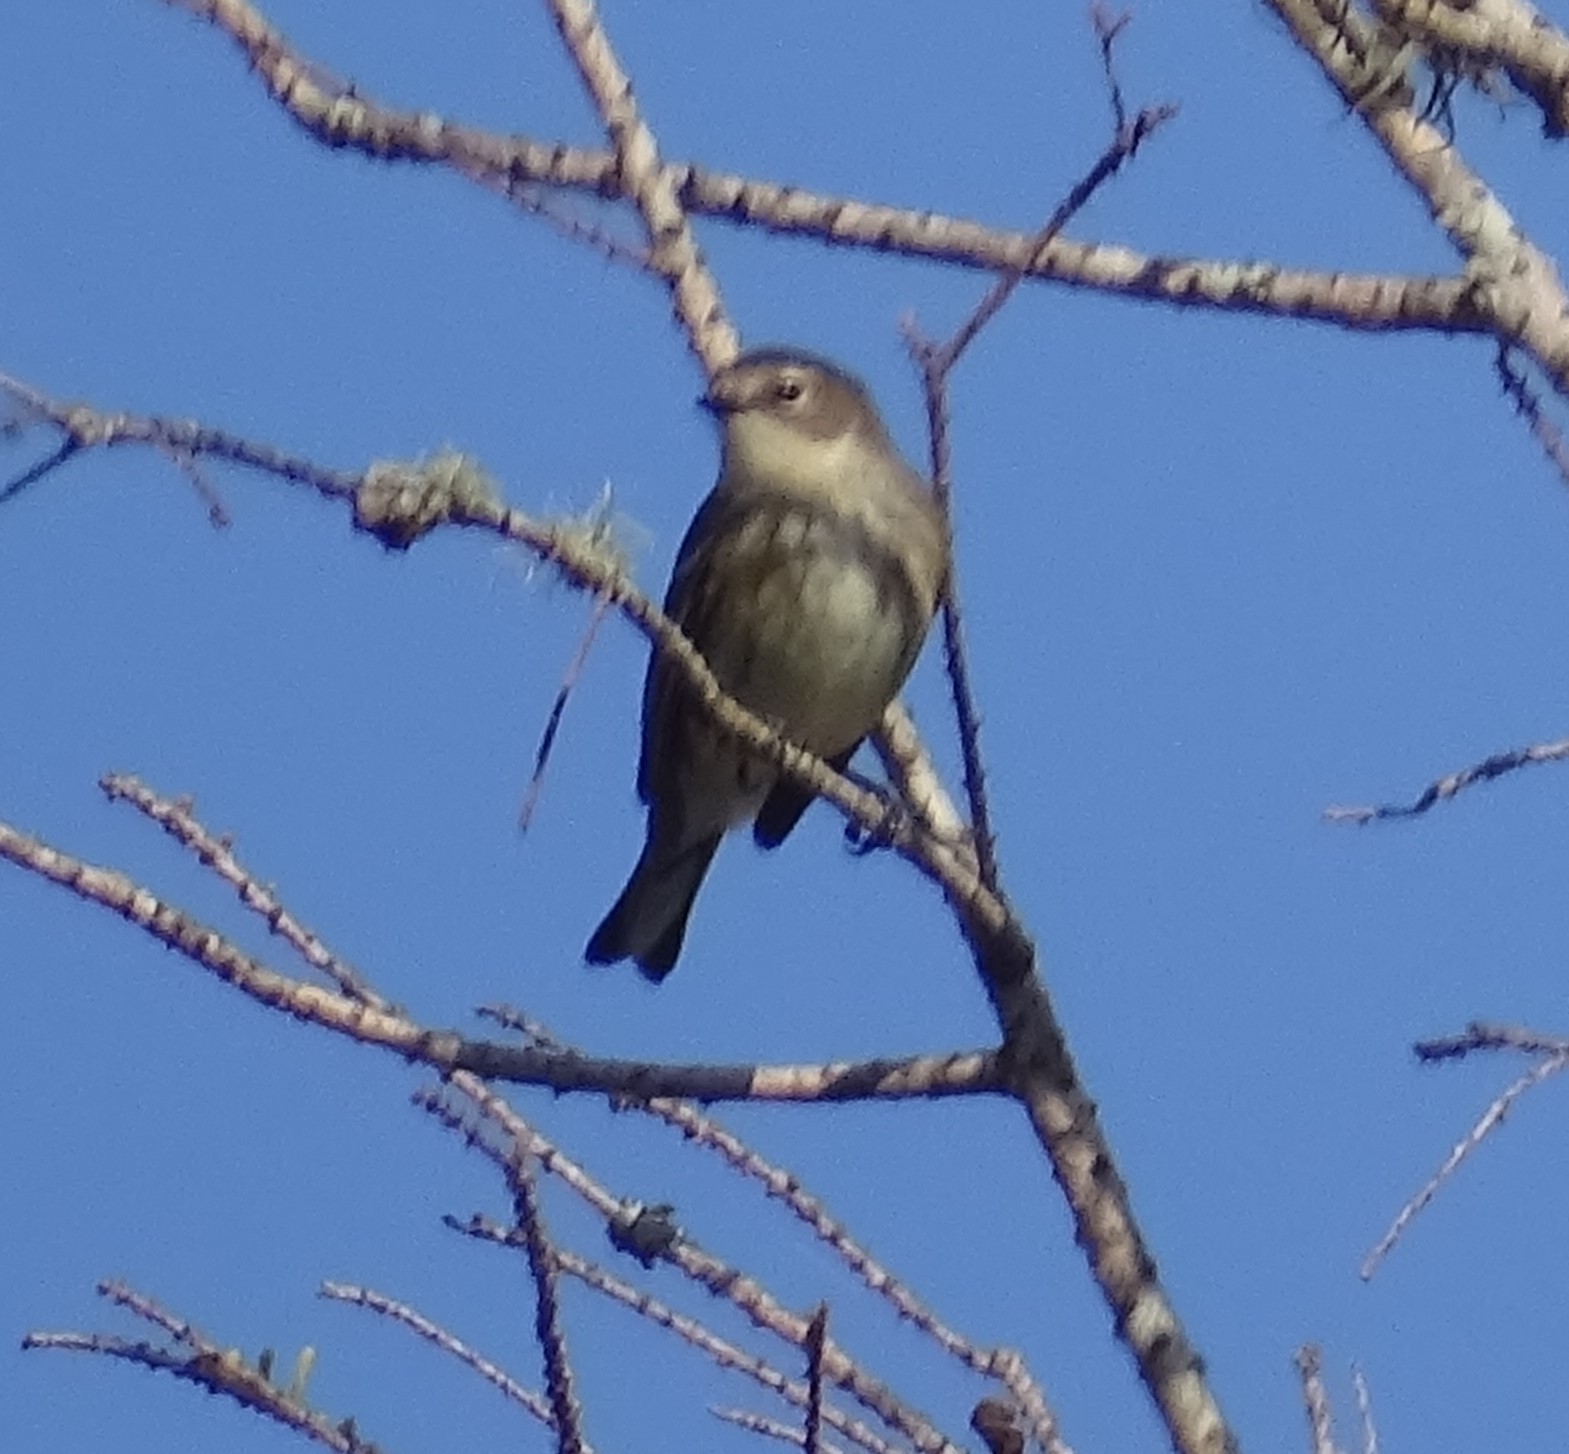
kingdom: Animalia
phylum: Chordata
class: Aves
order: Passeriformes
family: Parulidae
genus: Setophaga
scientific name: Setophaga coronata
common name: Myrtle warbler
